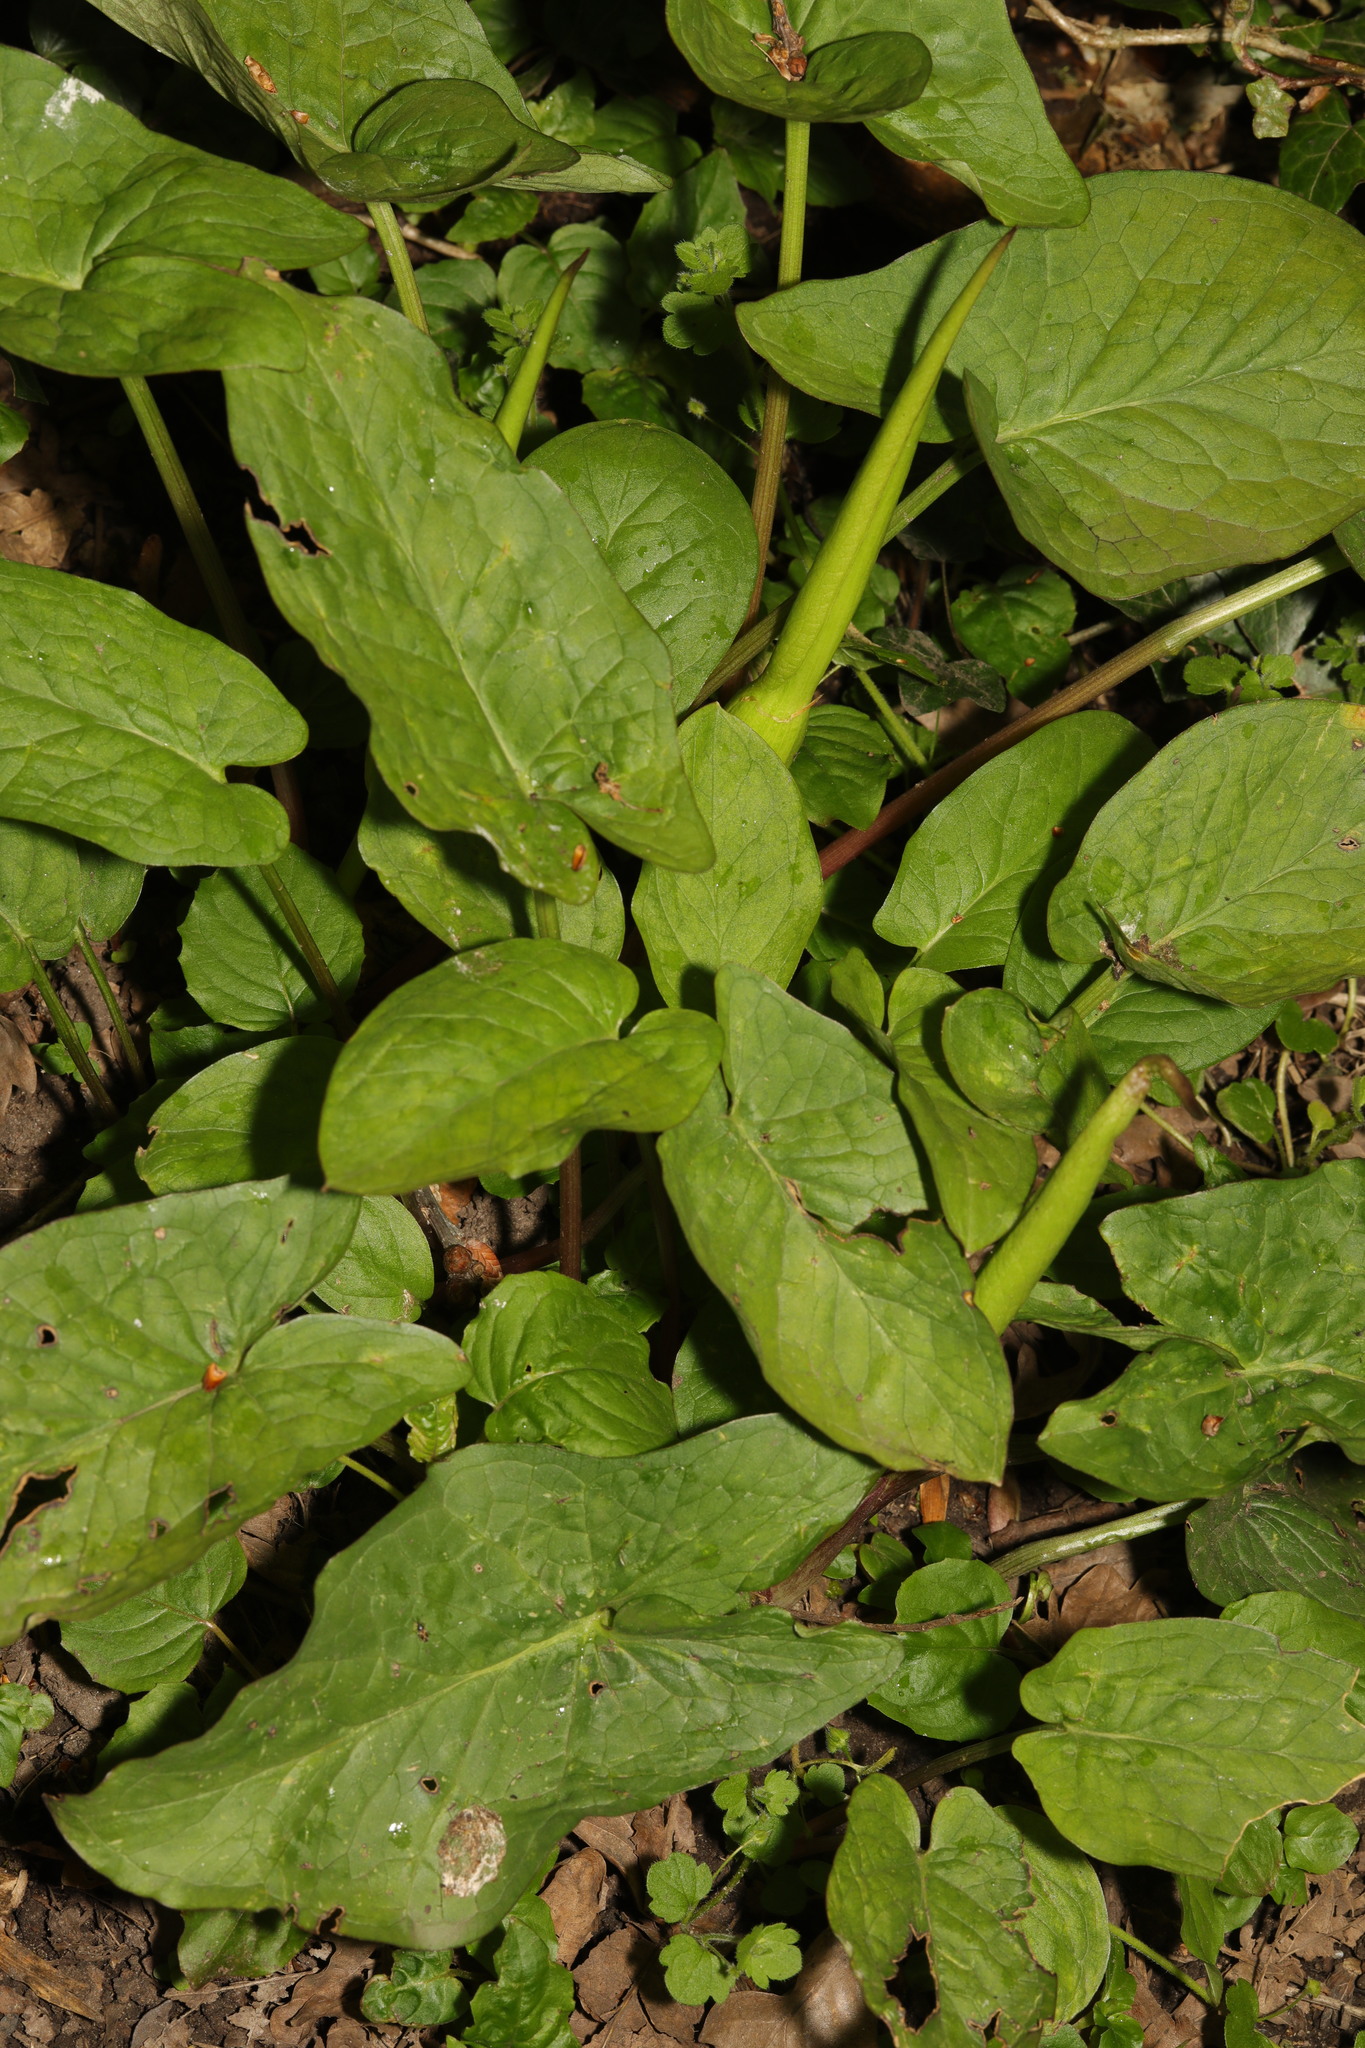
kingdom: Plantae
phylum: Tracheophyta
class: Liliopsida
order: Alismatales
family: Araceae
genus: Arum
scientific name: Arum maculatum
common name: Lords-and-ladies
